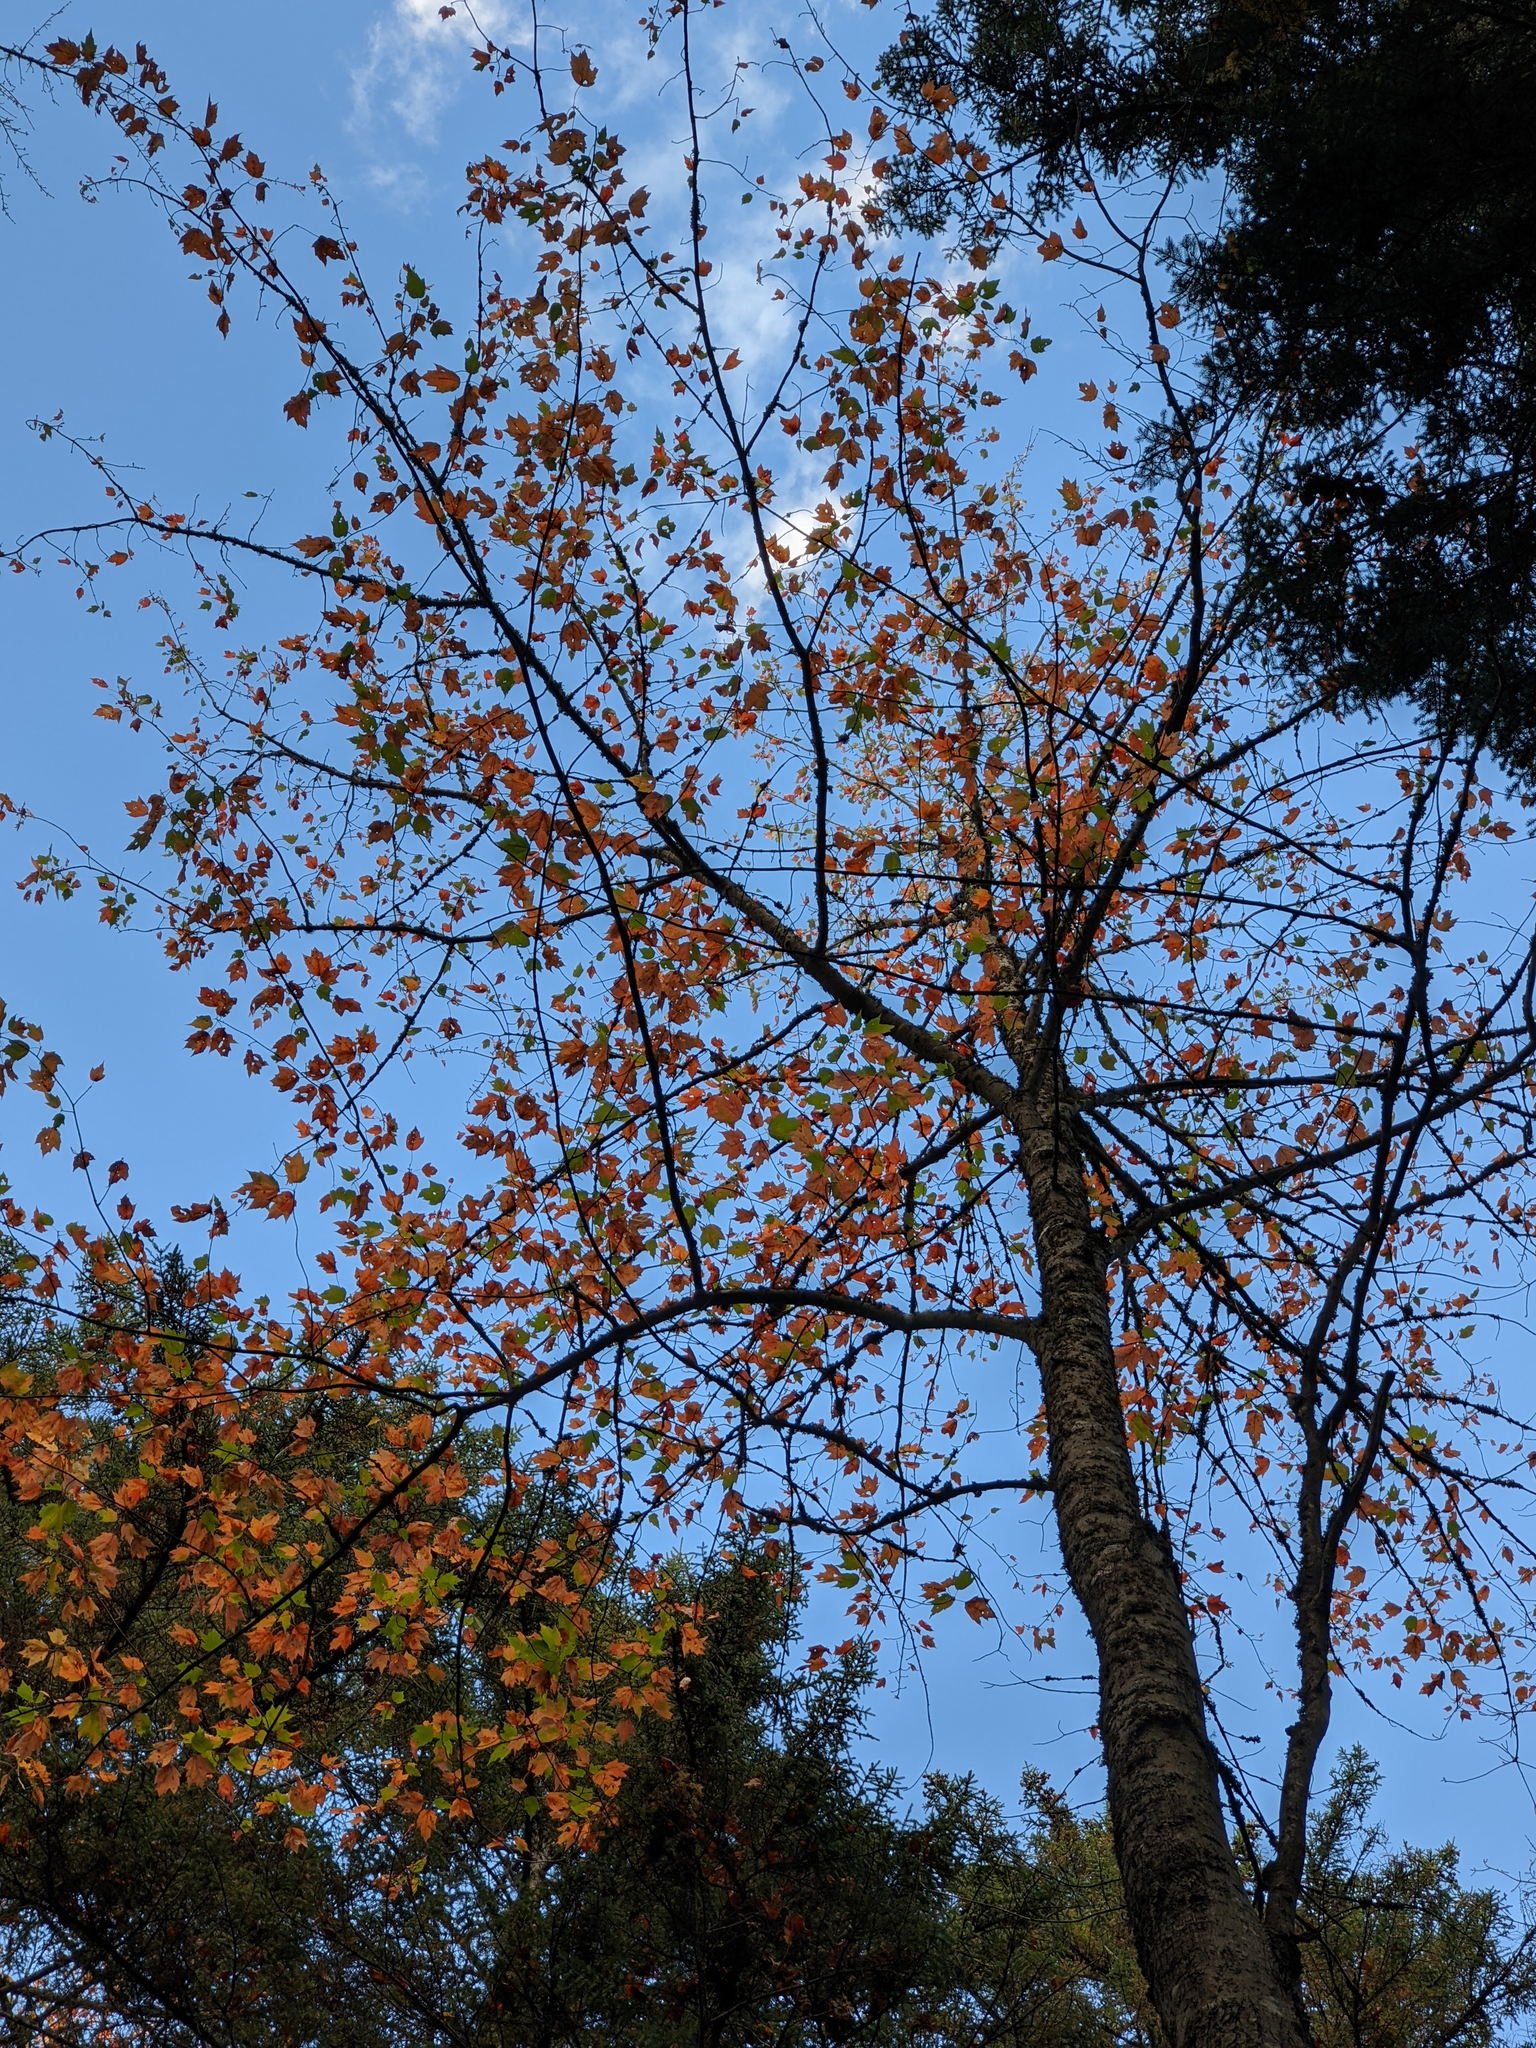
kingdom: Plantae
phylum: Tracheophyta
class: Magnoliopsida
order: Sapindales
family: Sapindaceae
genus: Acer
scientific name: Acer rubrum
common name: Red maple
